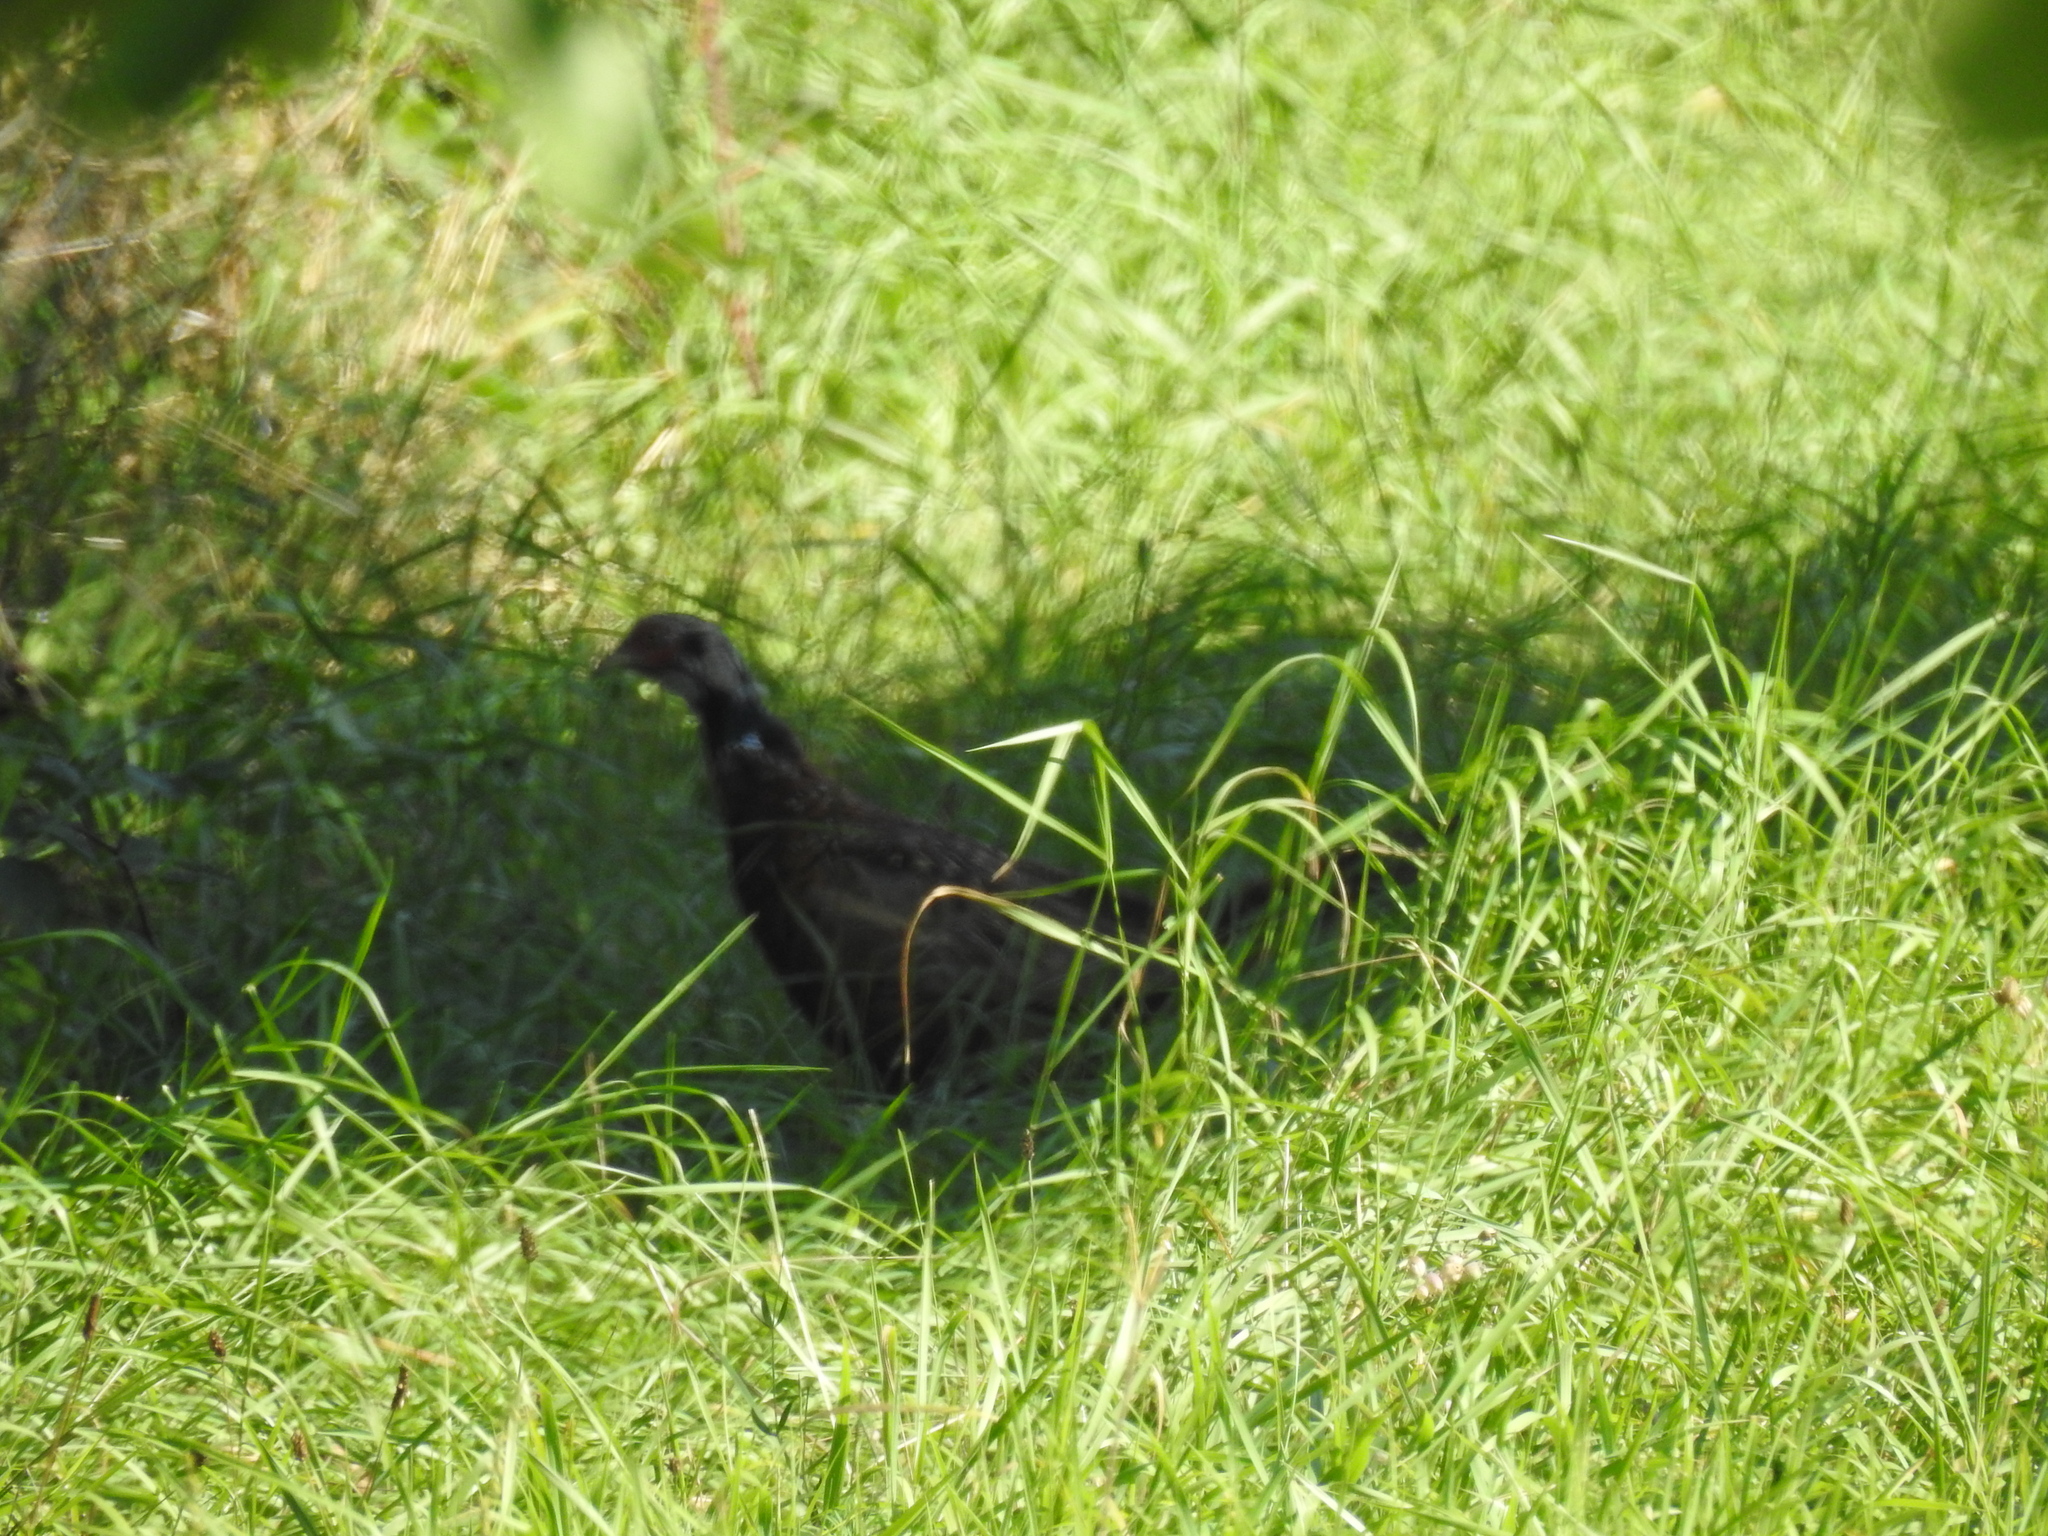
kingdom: Animalia
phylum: Chordata
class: Aves
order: Galliformes
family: Phasianidae
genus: Phasianus
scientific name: Phasianus colchicus
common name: Common pheasant
